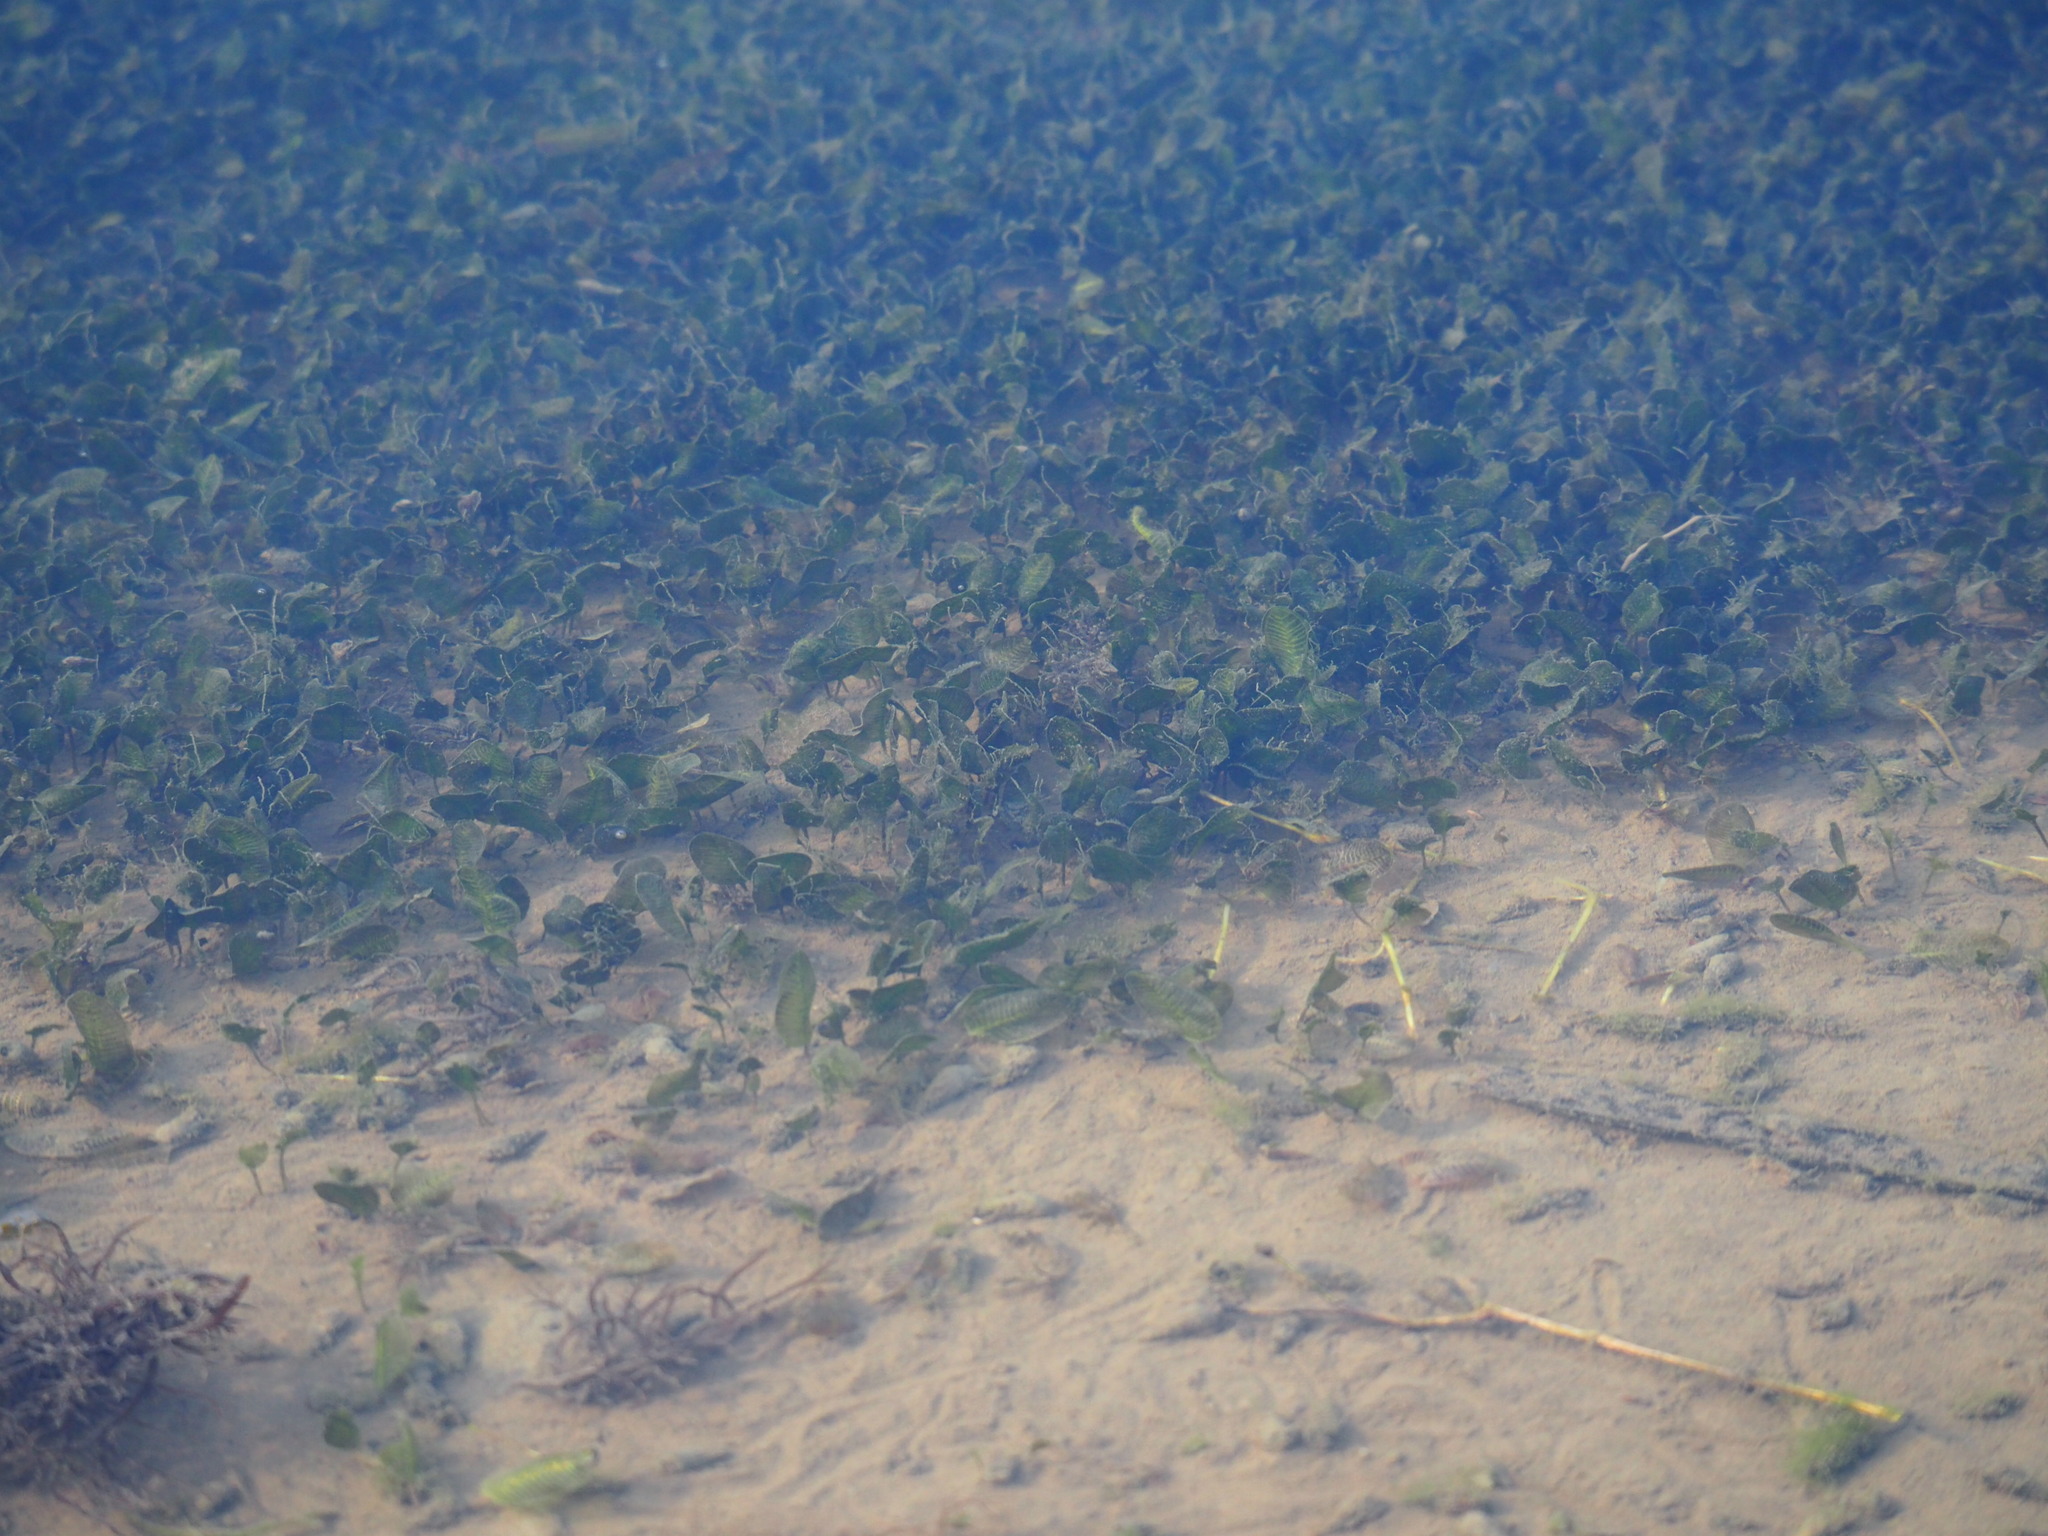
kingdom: Plantae
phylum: Tracheophyta
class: Liliopsida
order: Alismatales
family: Hydrocharitaceae
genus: Halophila
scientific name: Halophila ovalis
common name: Species code: ho
